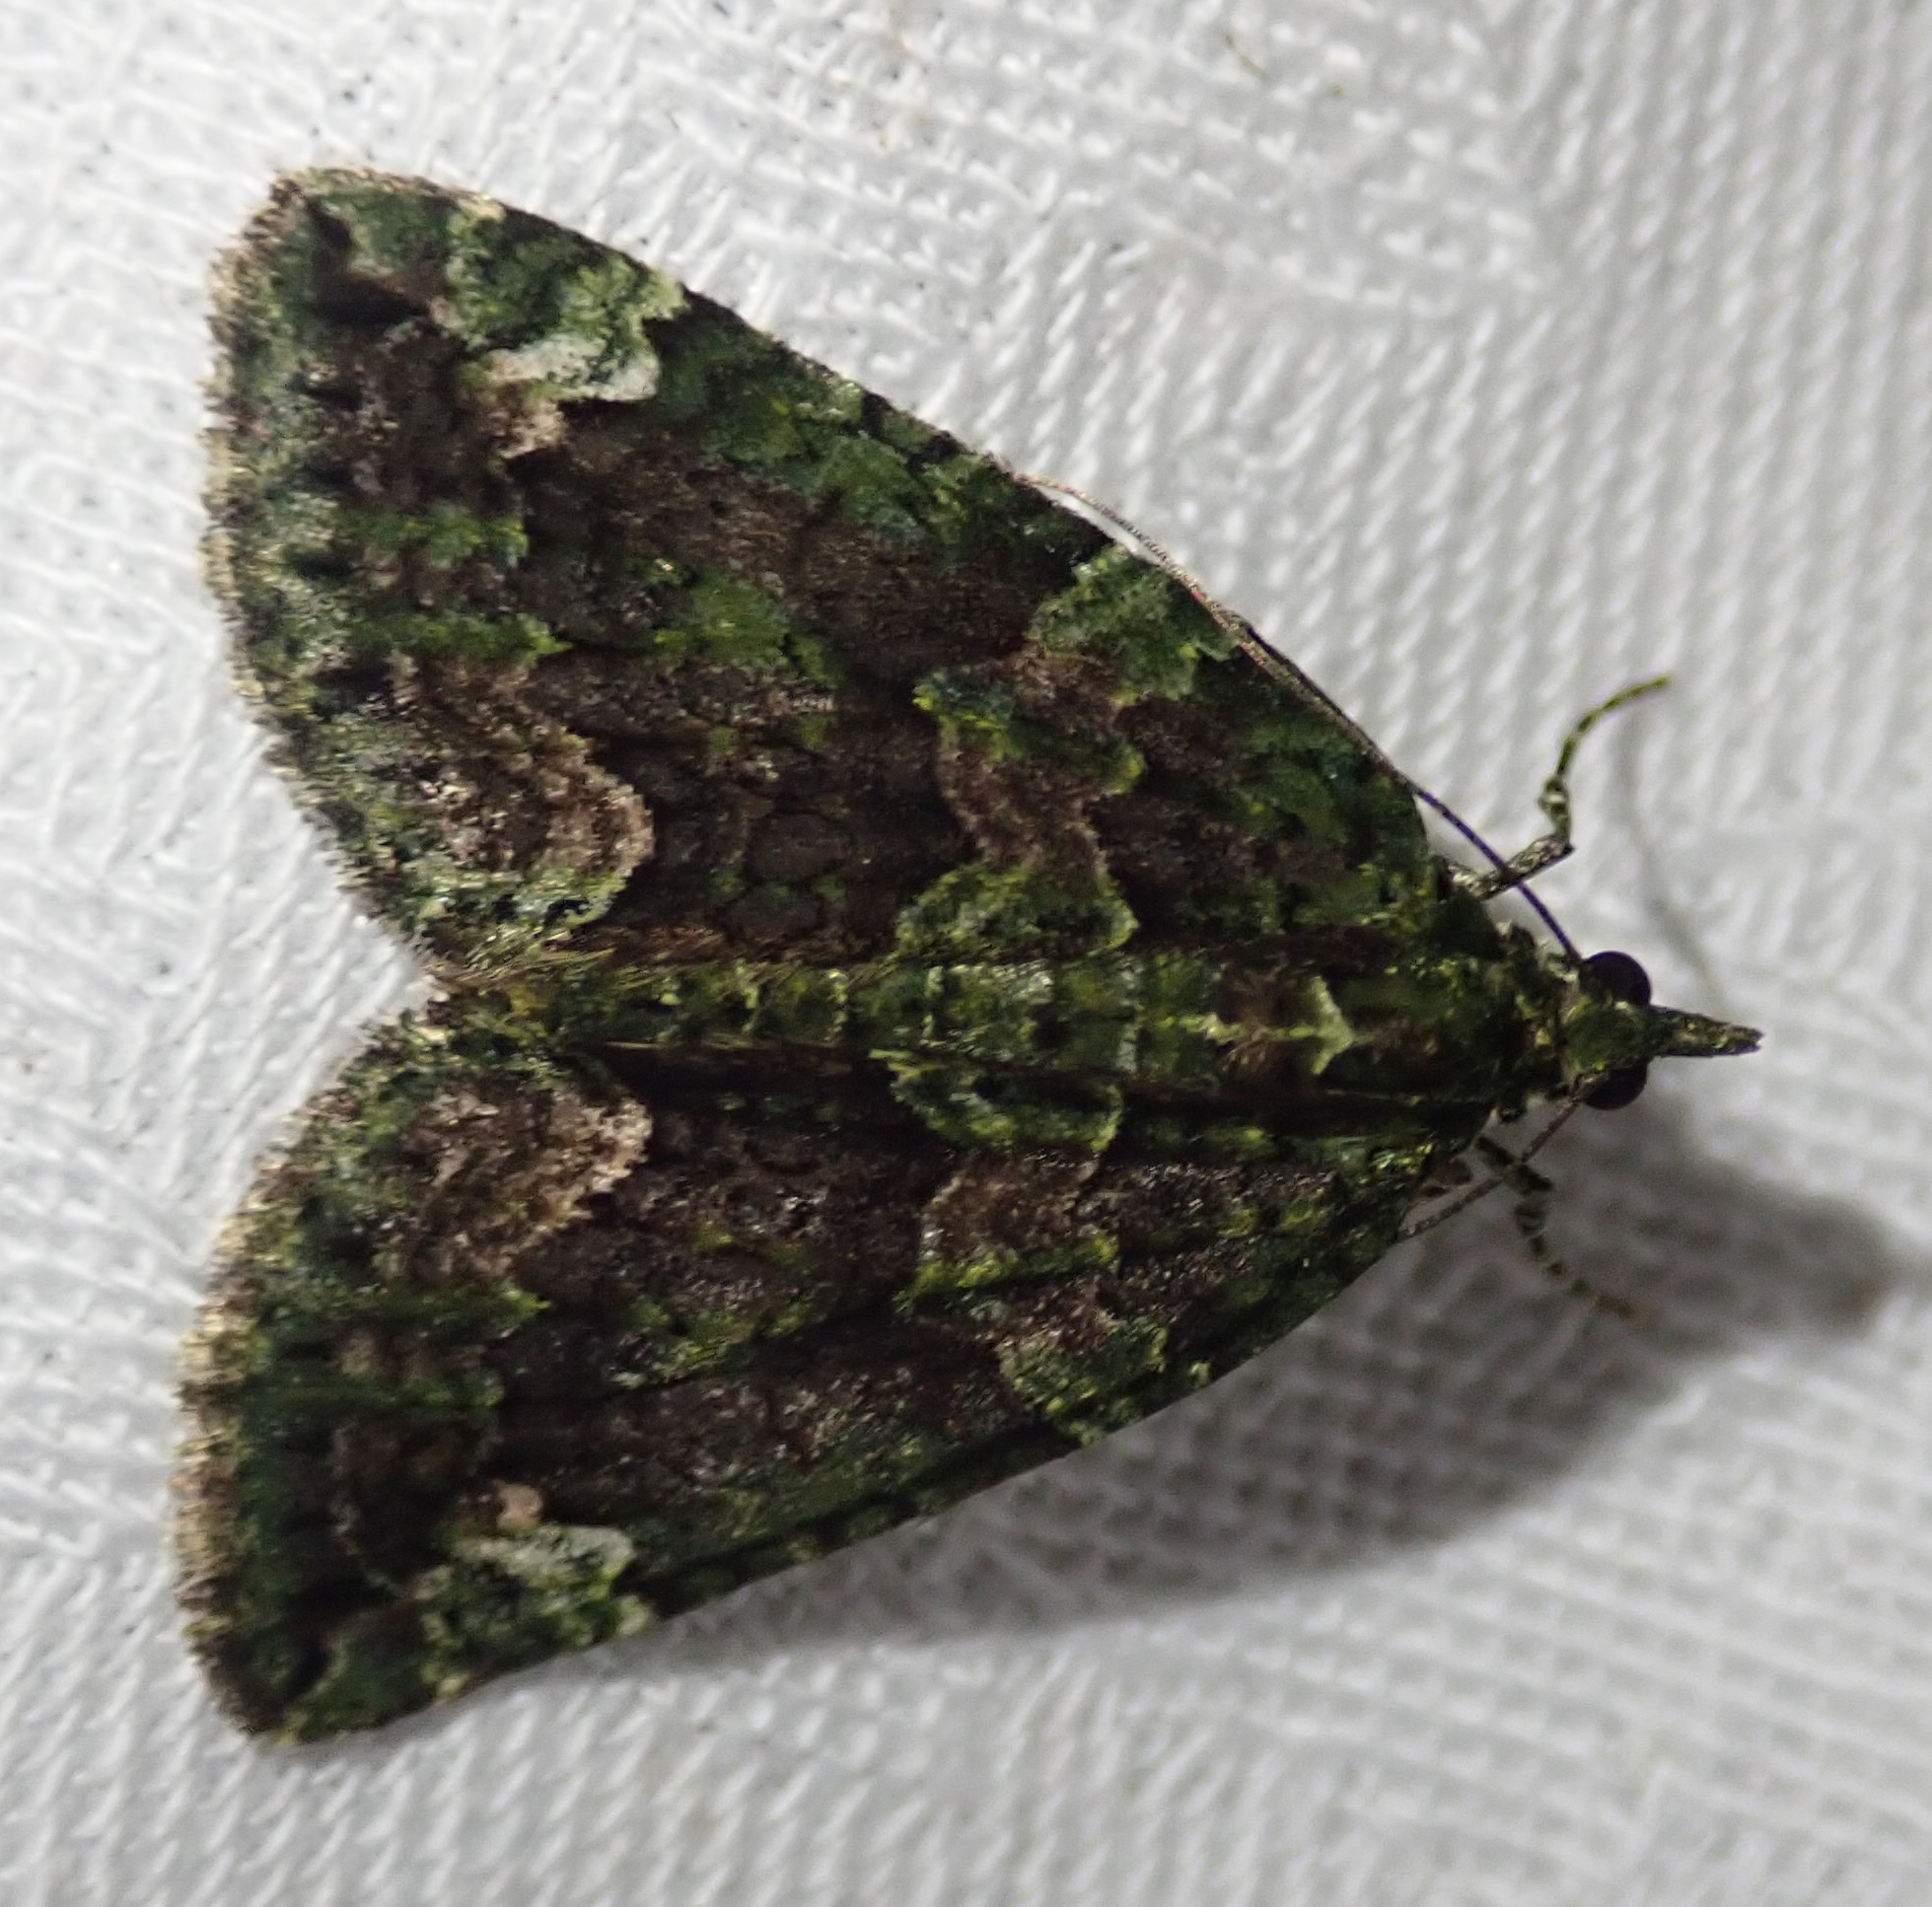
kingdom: Animalia
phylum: Arthropoda
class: Insecta
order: Lepidoptera
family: Geometridae
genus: Chloroclysta
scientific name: Chloroclysta siterata
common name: Red-green carpet
